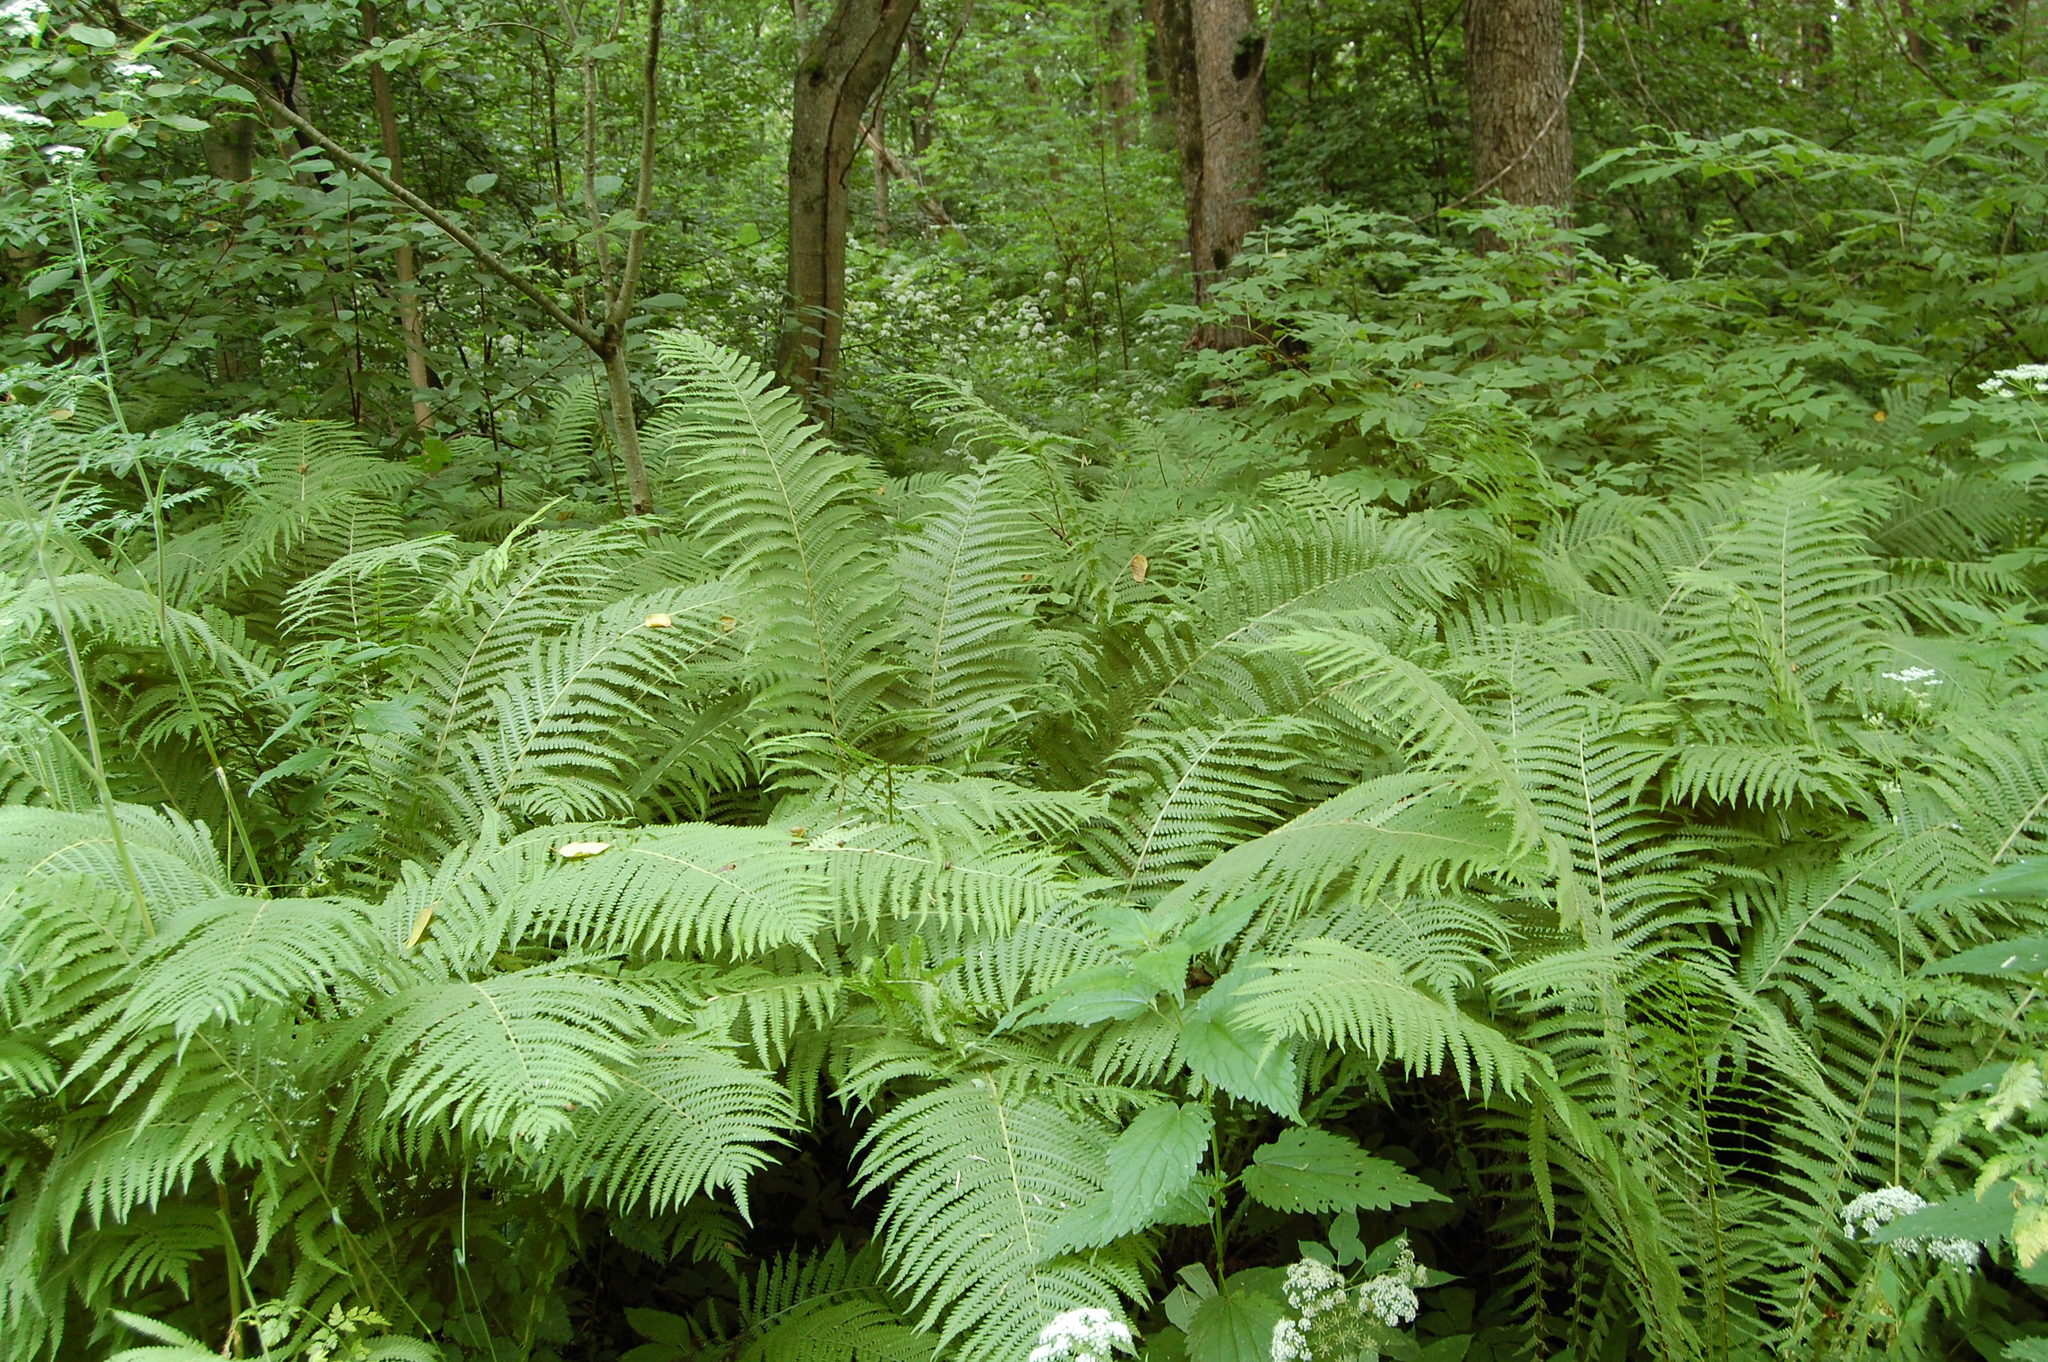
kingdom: Plantae
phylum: Tracheophyta
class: Polypodiopsida
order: Polypodiales
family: Onocleaceae
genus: Matteuccia
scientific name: Matteuccia struthiopteris
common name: Ostrich fern
